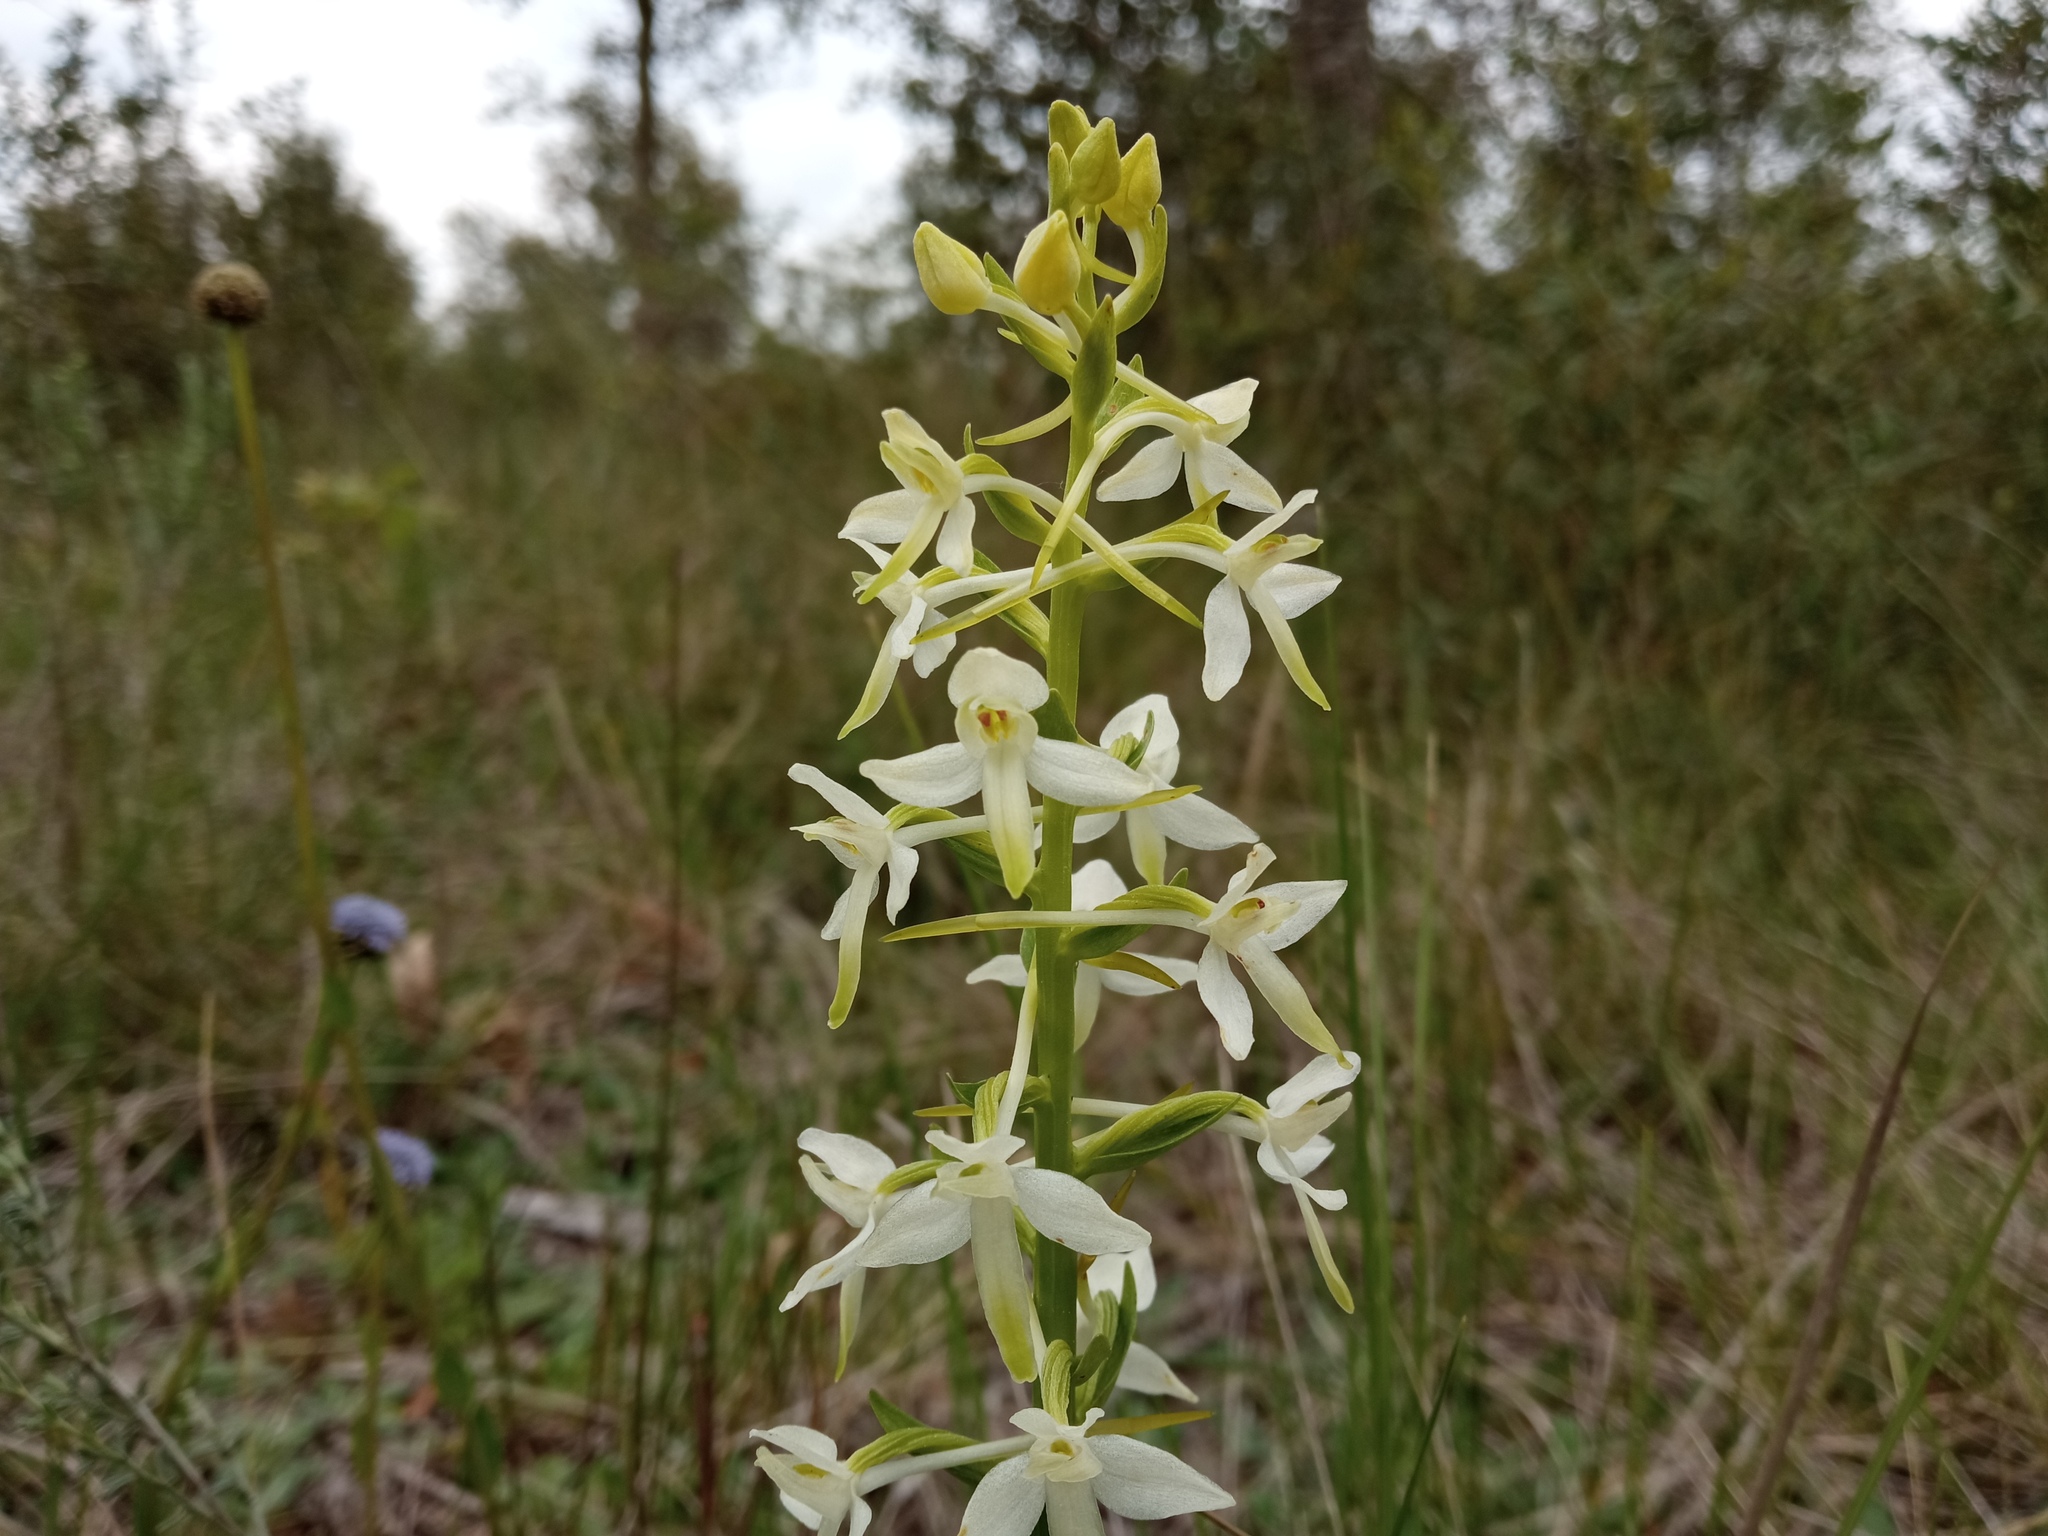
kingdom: Plantae
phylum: Tracheophyta
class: Liliopsida
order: Asparagales
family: Orchidaceae
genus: Platanthera
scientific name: Platanthera bifolia
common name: Lesser butterfly-orchid
